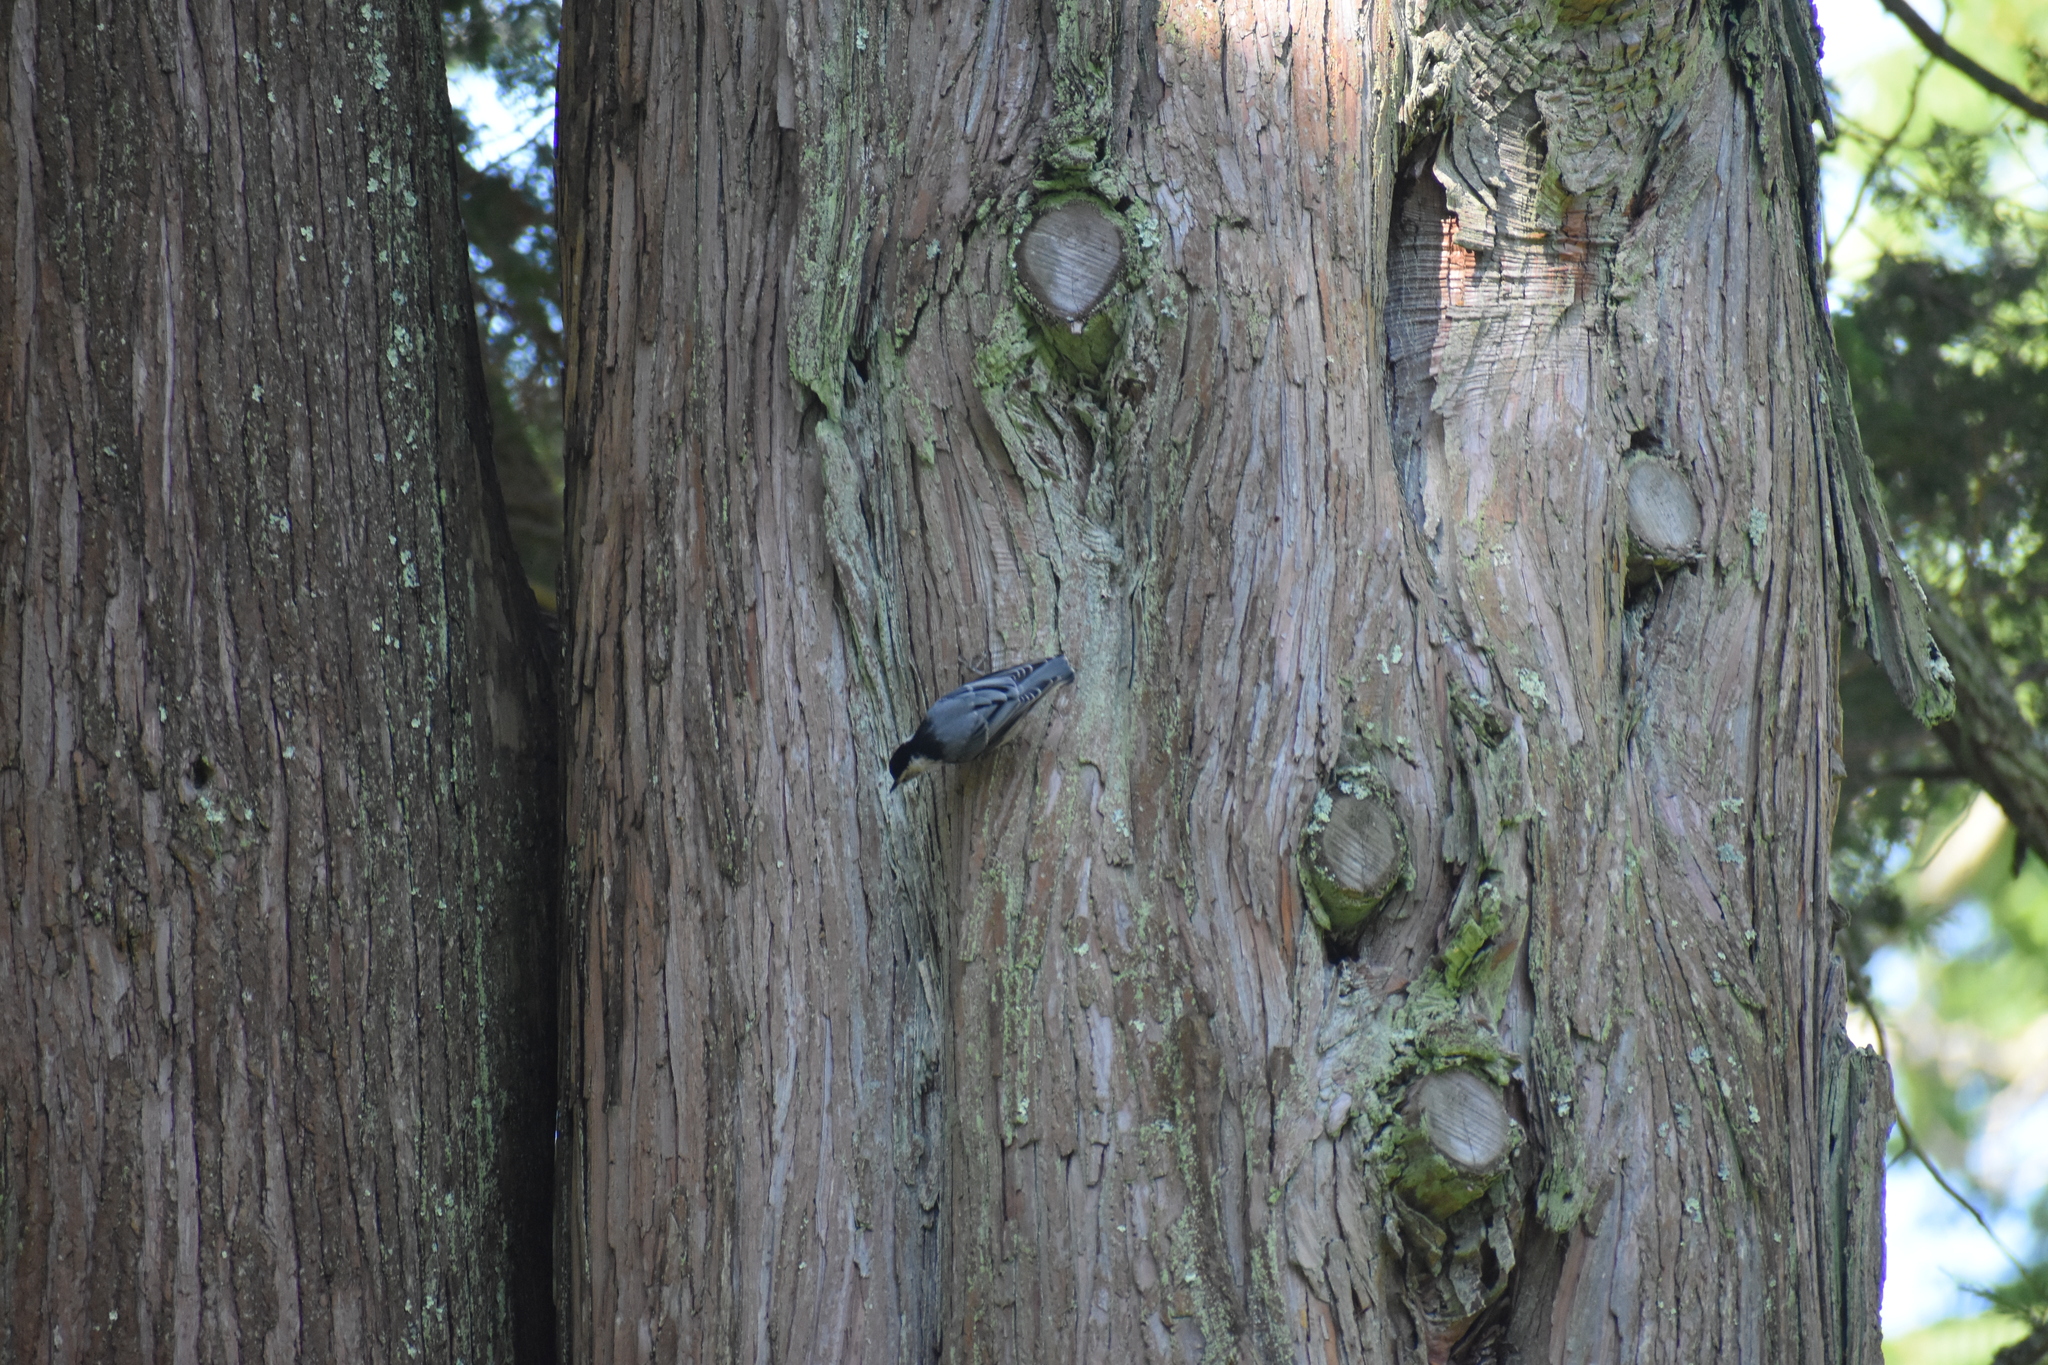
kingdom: Animalia
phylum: Chordata
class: Aves
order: Passeriformes
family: Sittidae
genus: Sitta
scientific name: Sitta carolinensis
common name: White-breasted nuthatch
